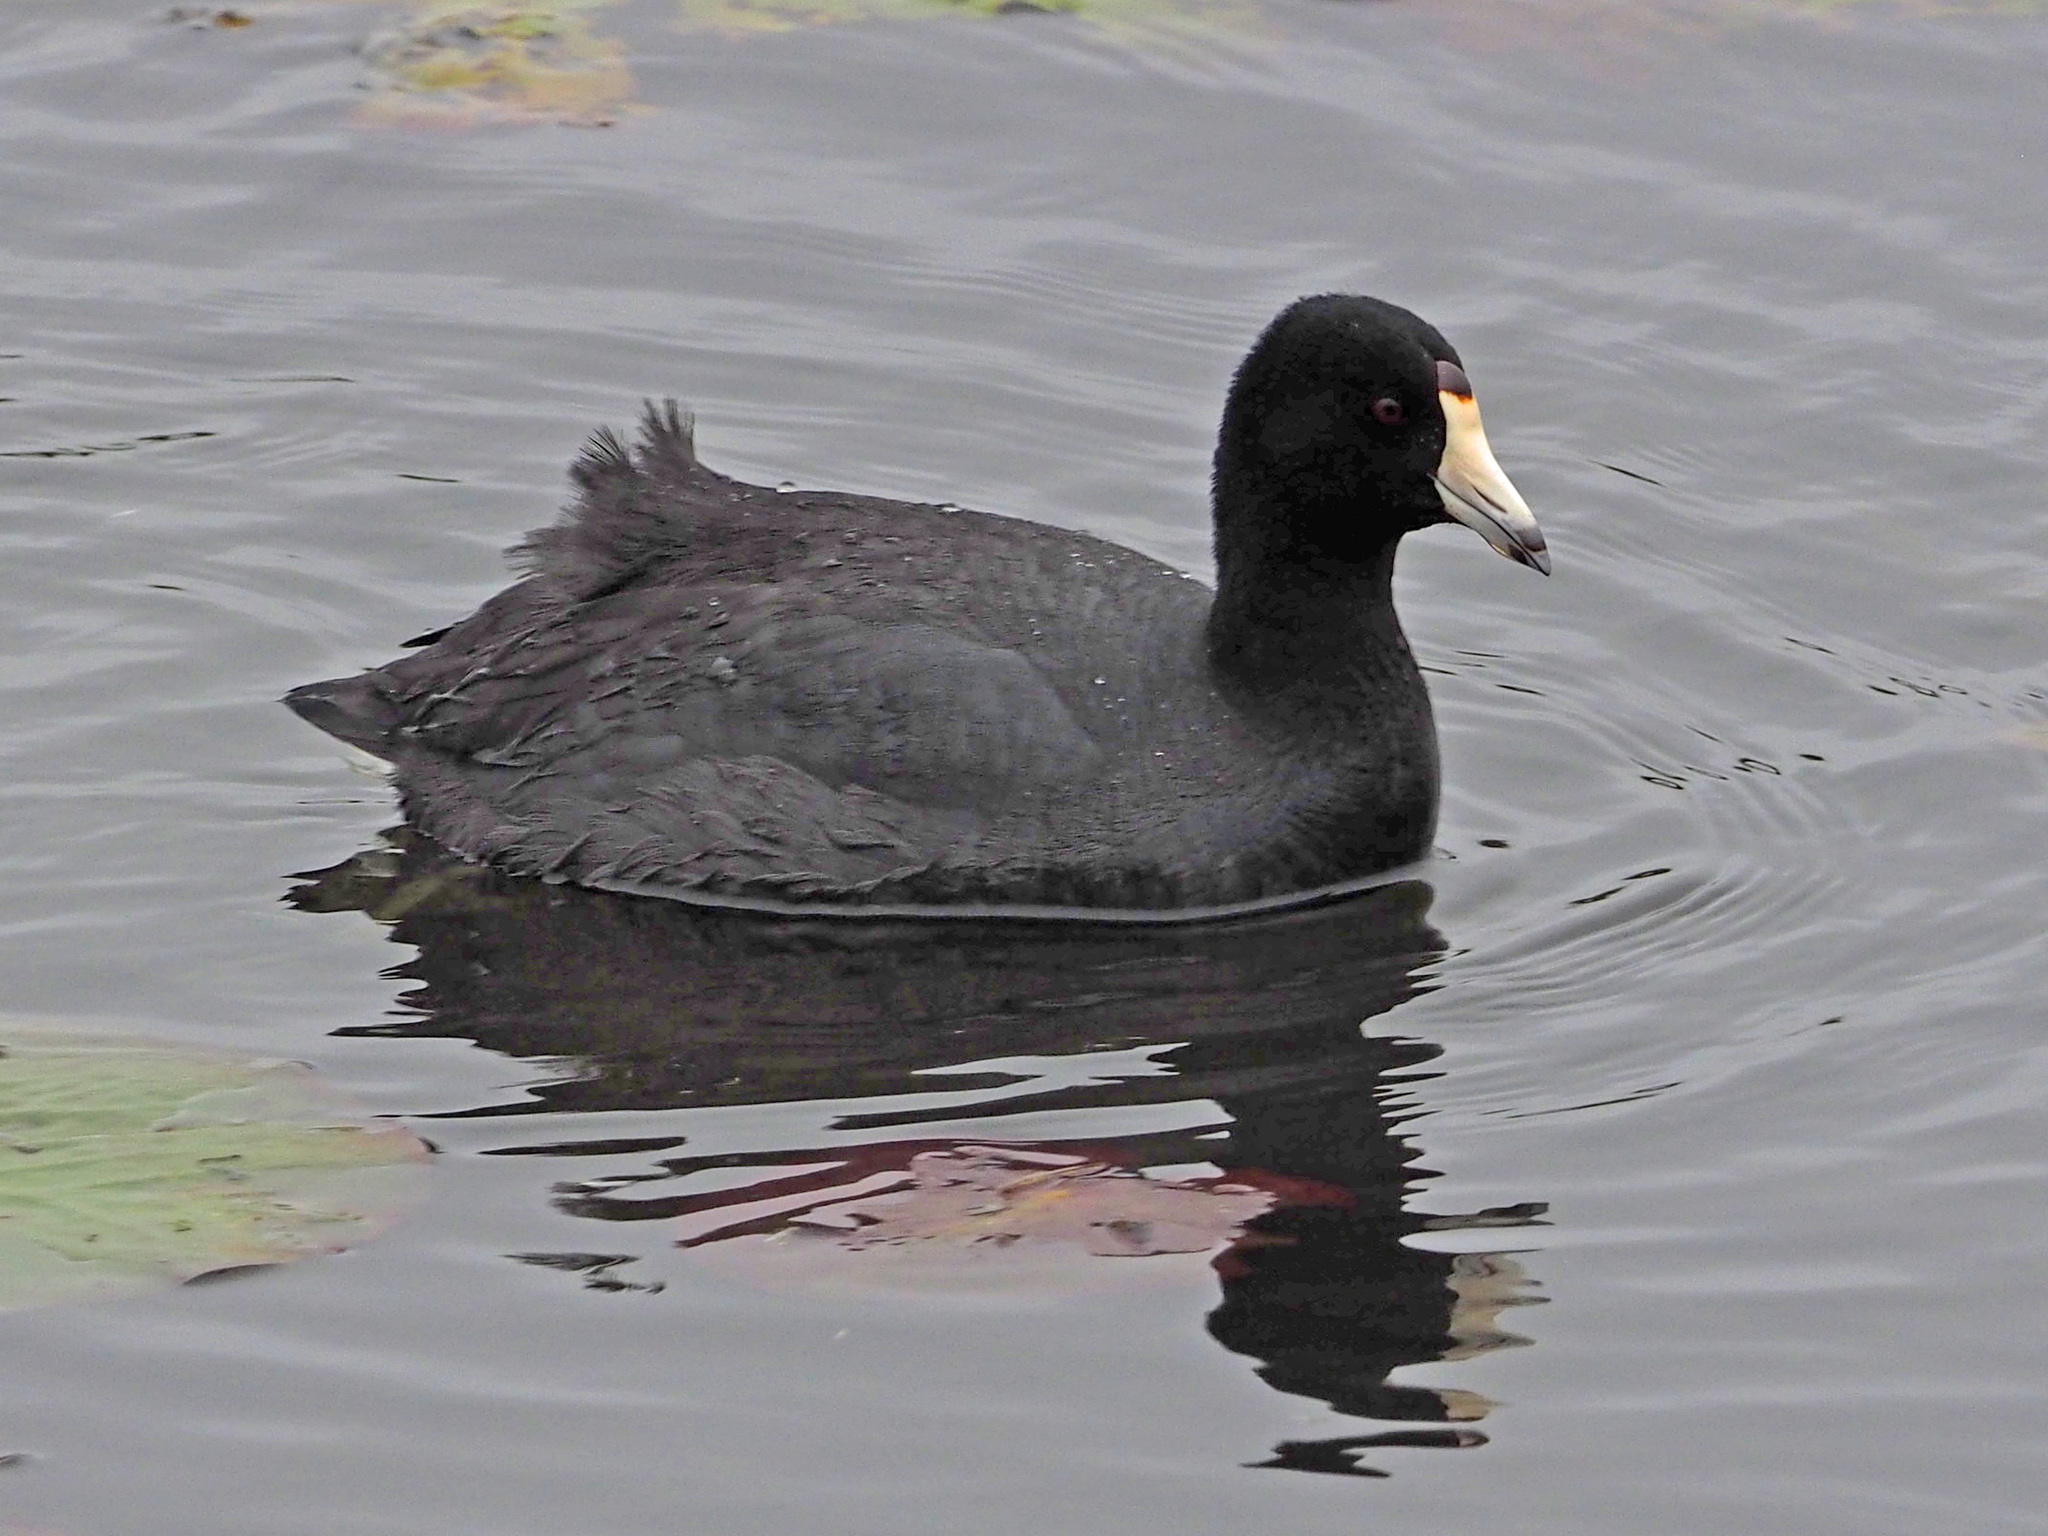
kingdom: Animalia
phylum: Chordata
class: Aves
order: Gruiformes
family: Rallidae
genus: Fulica
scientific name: Fulica americana
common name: American coot
